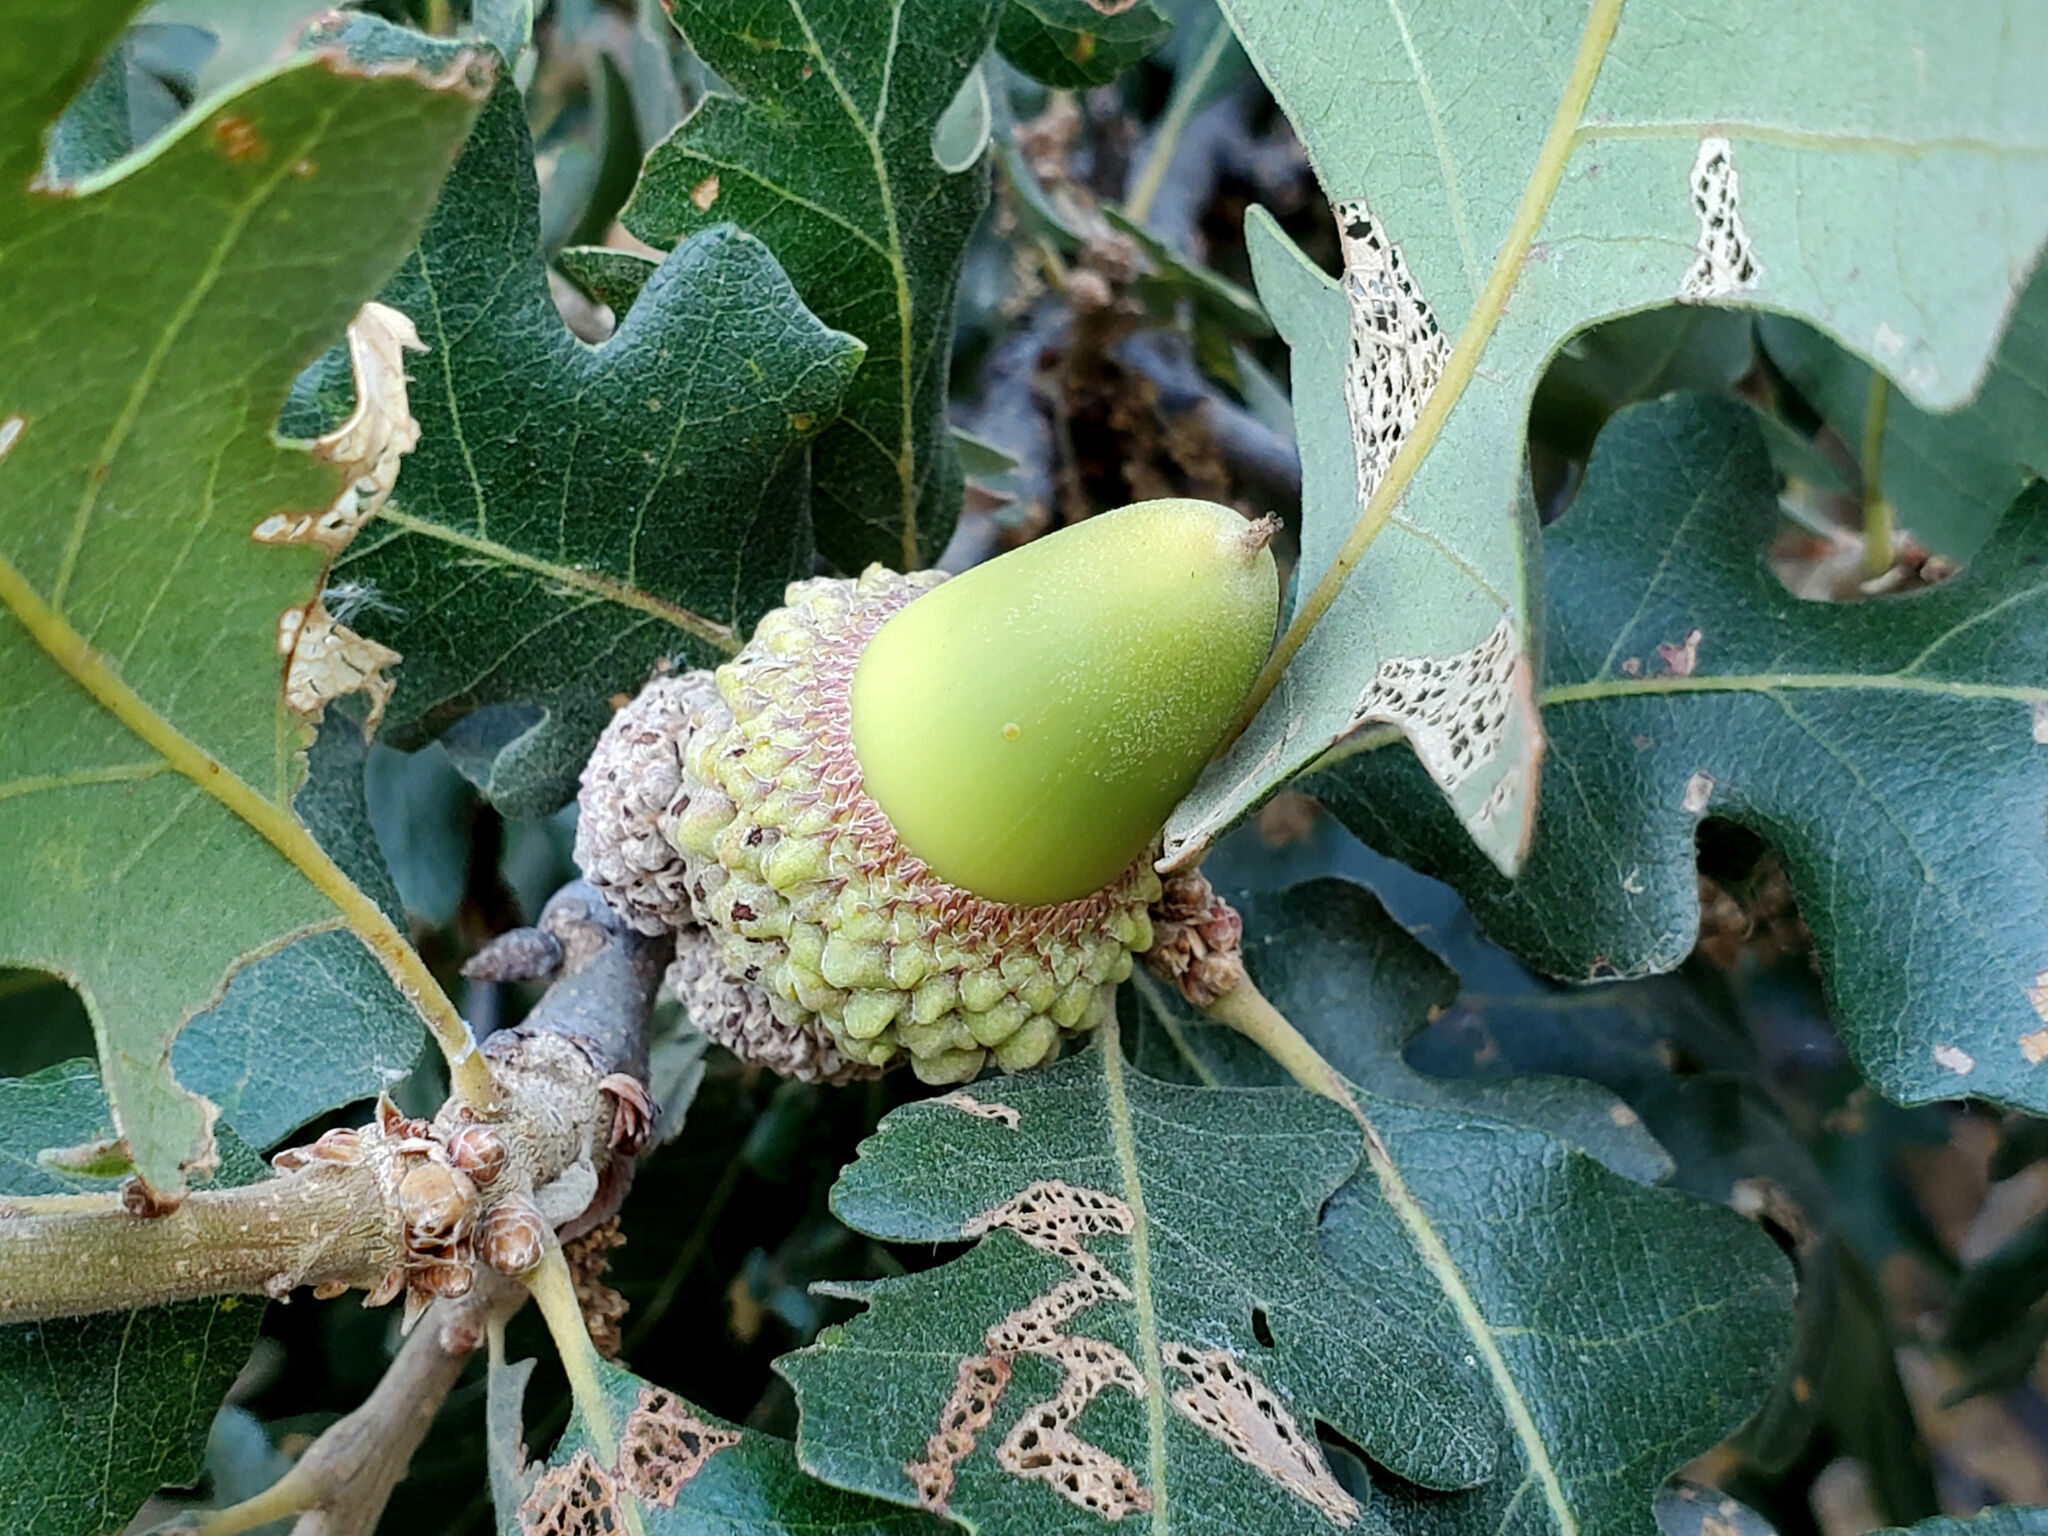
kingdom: Plantae
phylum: Tracheophyta
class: Magnoliopsida
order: Fagales
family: Fagaceae
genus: Quercus
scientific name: Quercus lobata
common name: Valley oak
